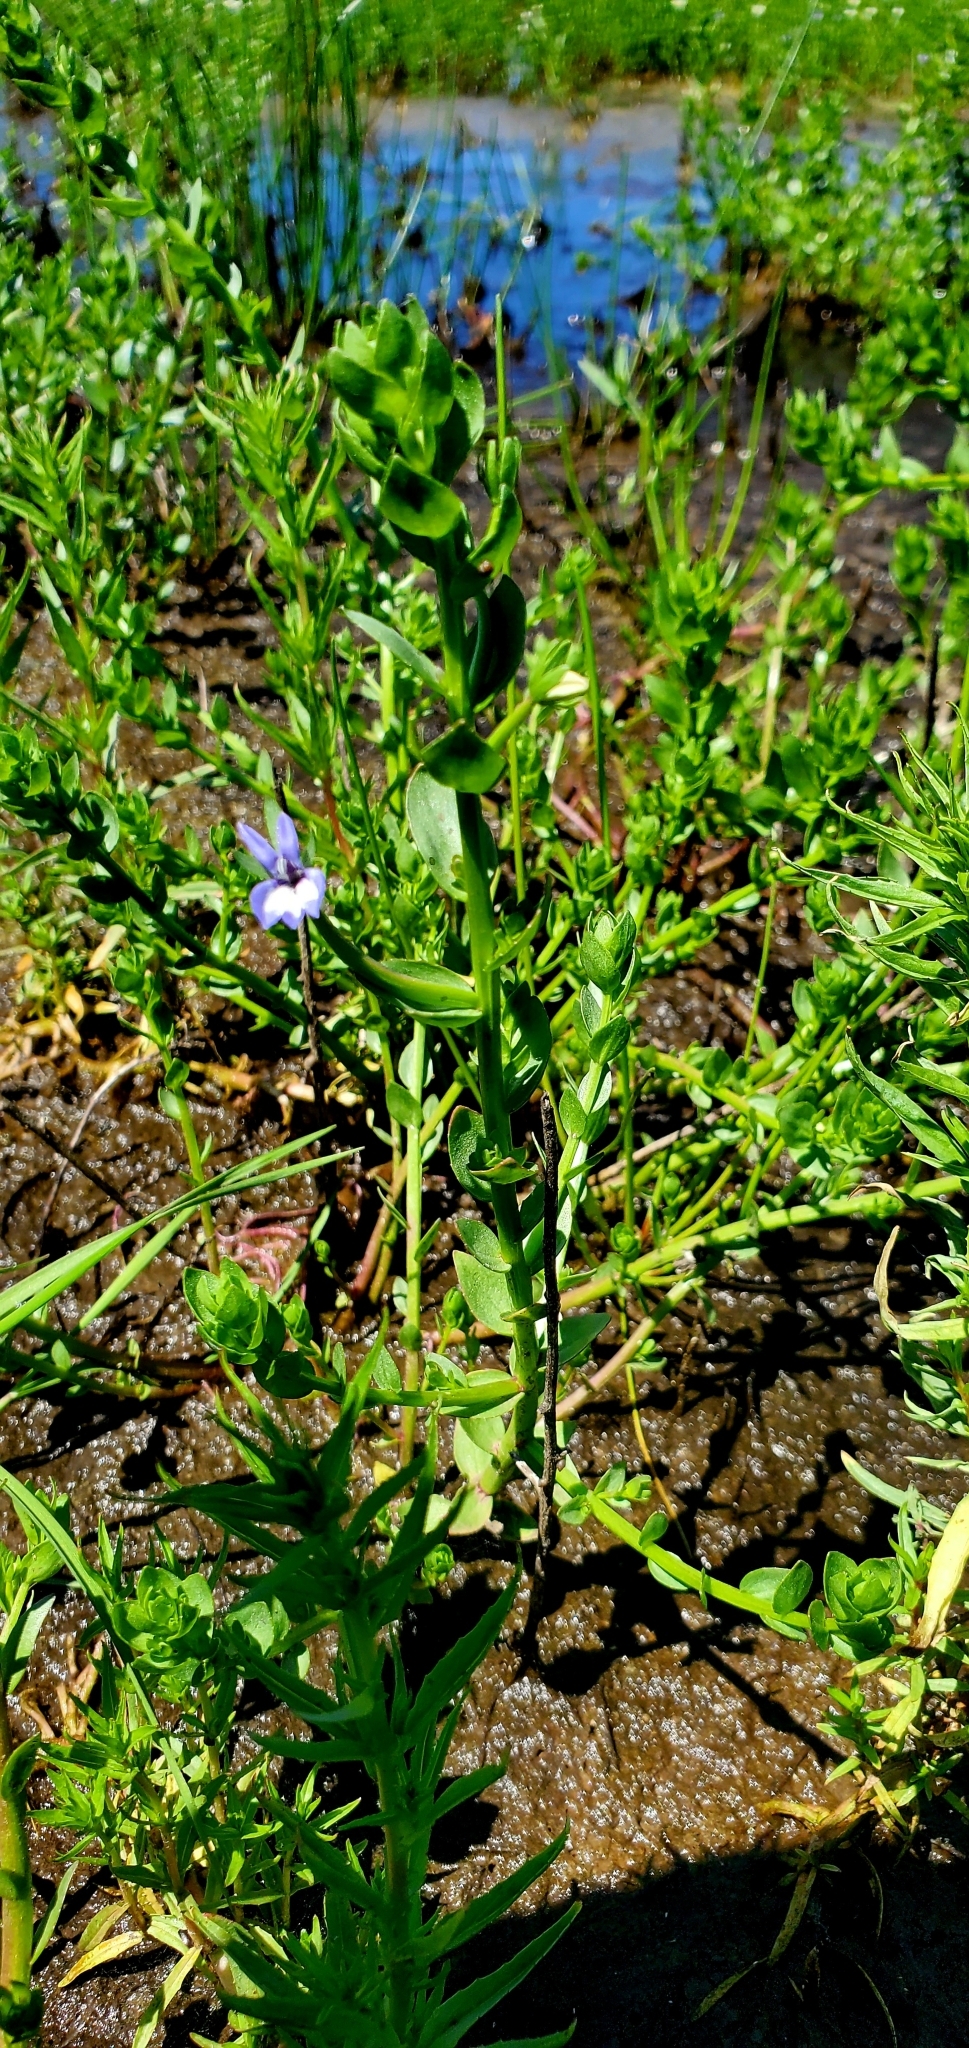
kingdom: Plantae
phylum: Tracheophyta
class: Magnoliopsida
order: Asterales
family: Campanulaceae
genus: Downingia
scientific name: Downingia elegans
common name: Californian lobelia
